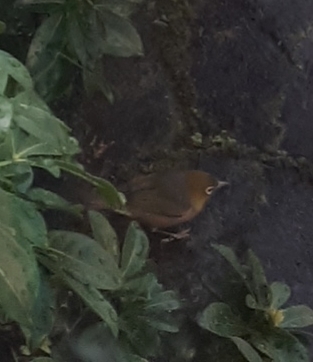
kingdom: Animalia
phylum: Chordata
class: Aves
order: Passeriformes
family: Zosteropidae
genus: Zosterops
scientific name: Zosterops lateralis
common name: Silvereye
